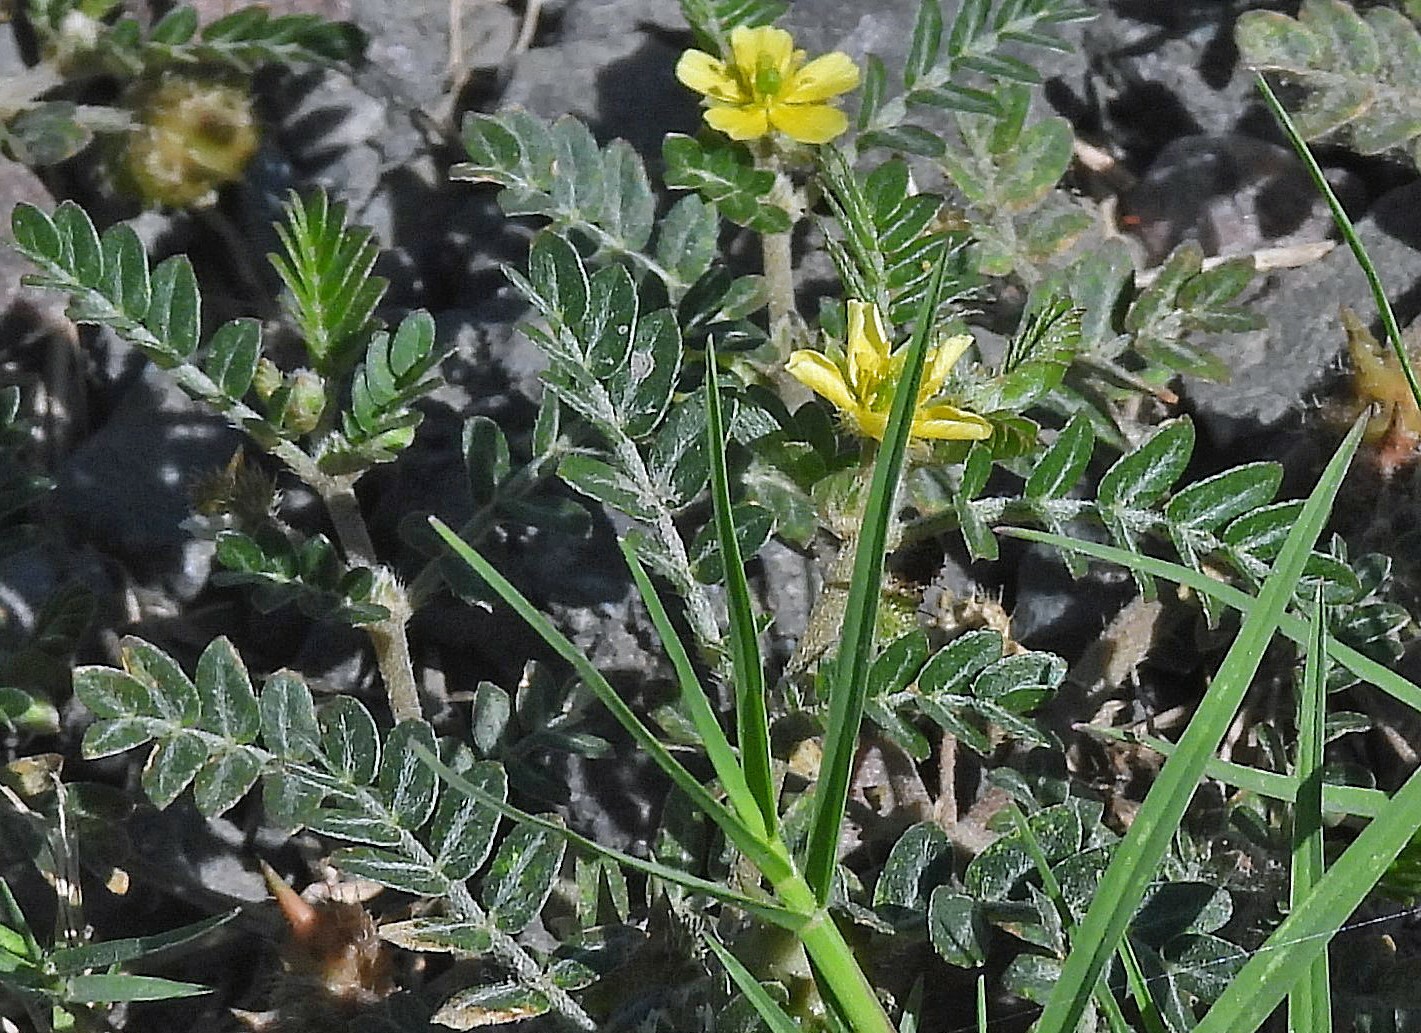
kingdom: Plantae
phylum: Tracheophyta
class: Magnoliopsida
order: Zygophyllales
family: Zygophyllaceae
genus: Tribulus
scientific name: Tribulus terrestris
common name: Puncturevine
